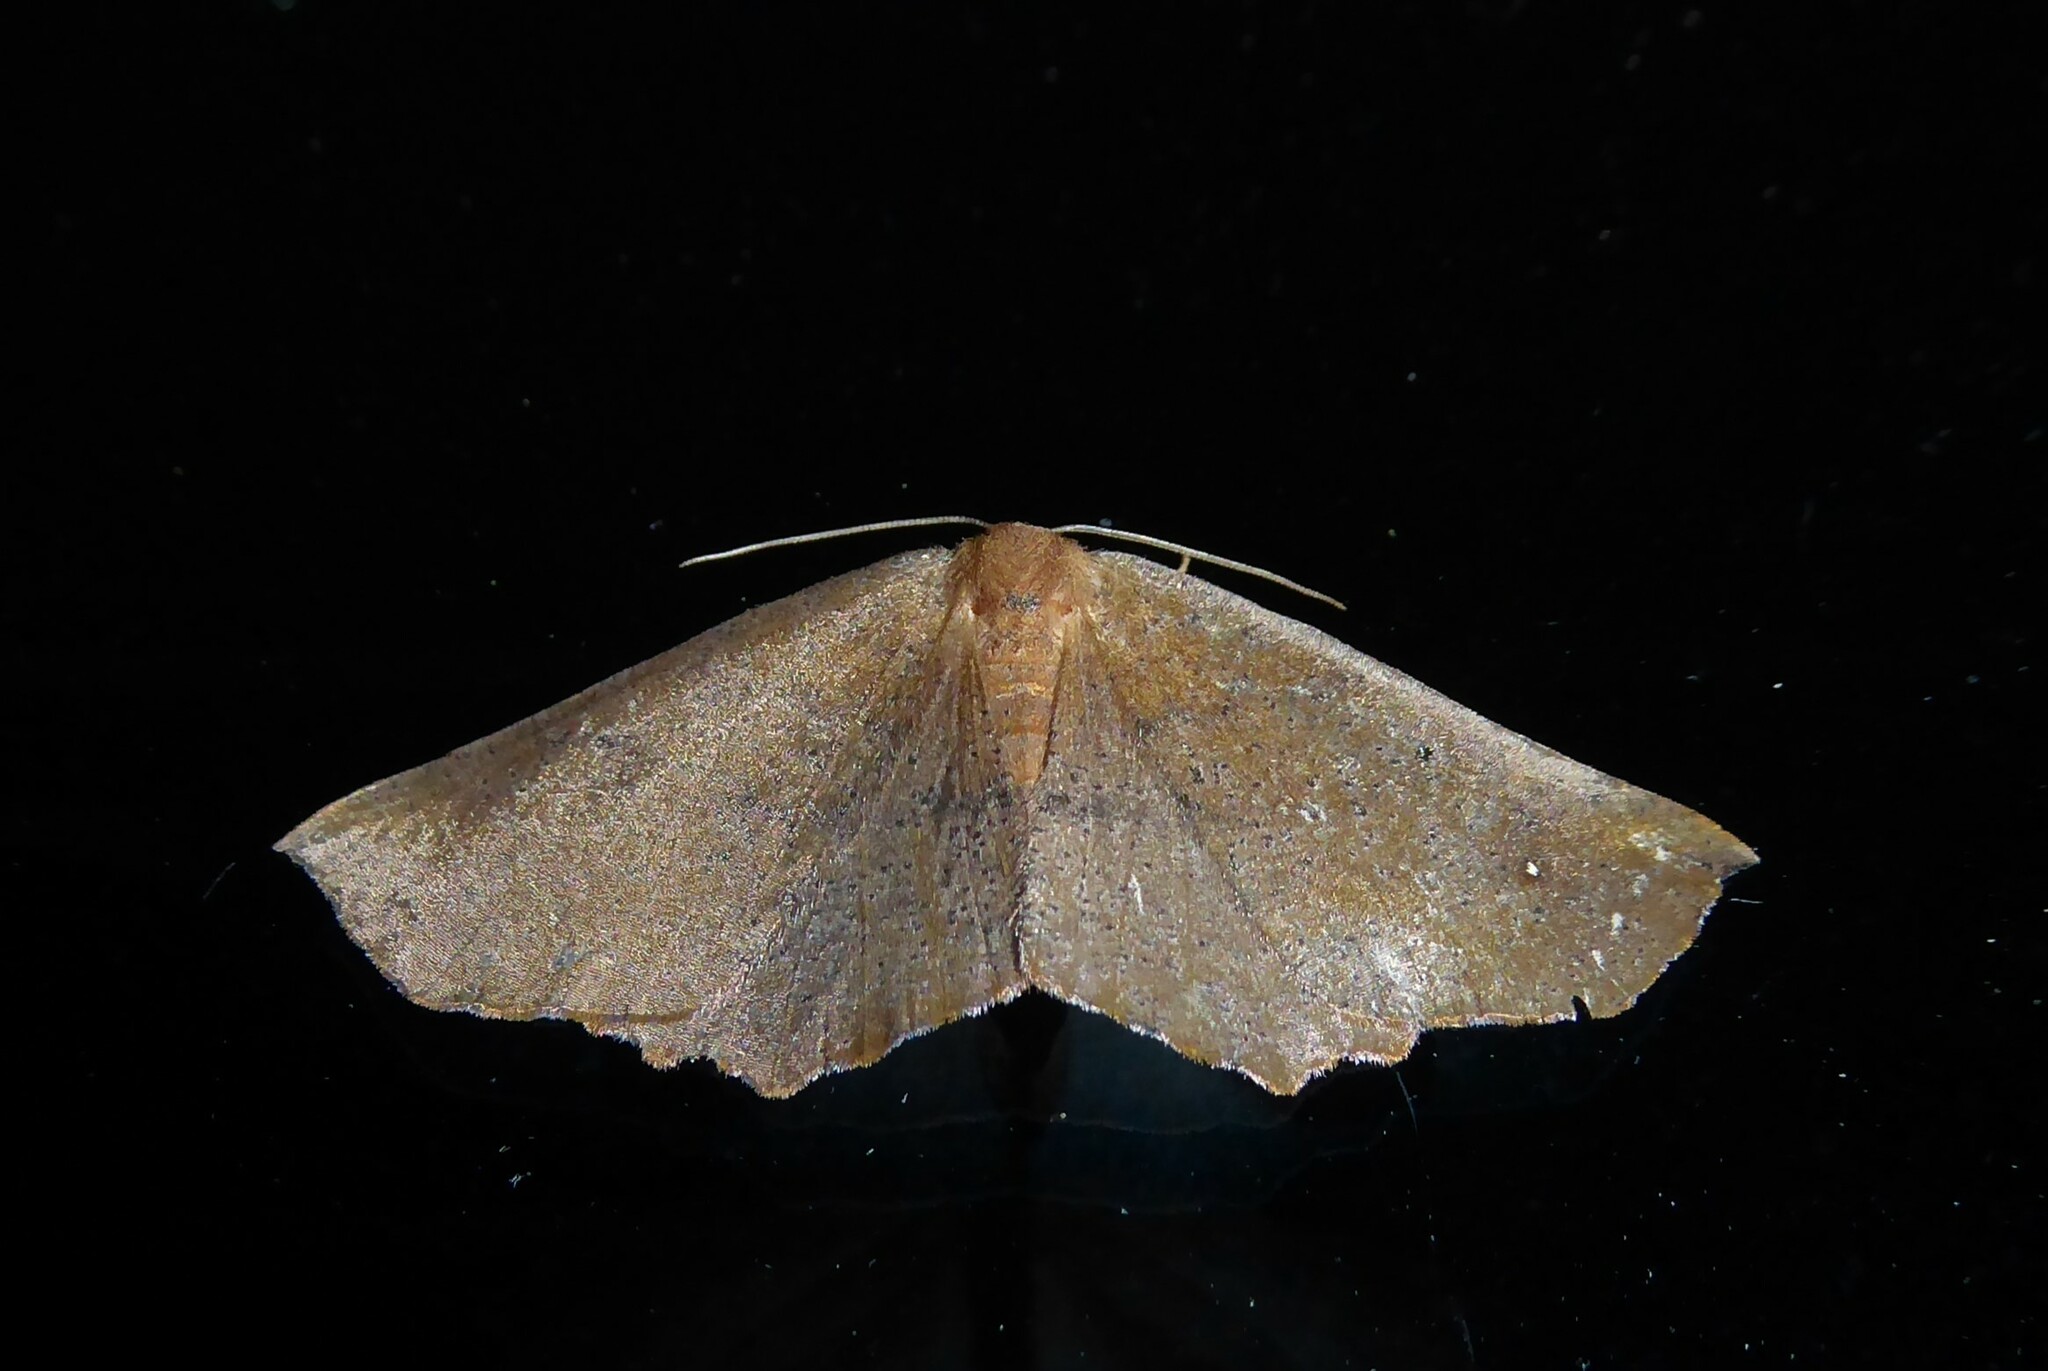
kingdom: Animalia
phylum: Arthropoda
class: Insecta
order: Lepidoptera
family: Geometridae
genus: Xyridacma
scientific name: Xyridacma ustaria
